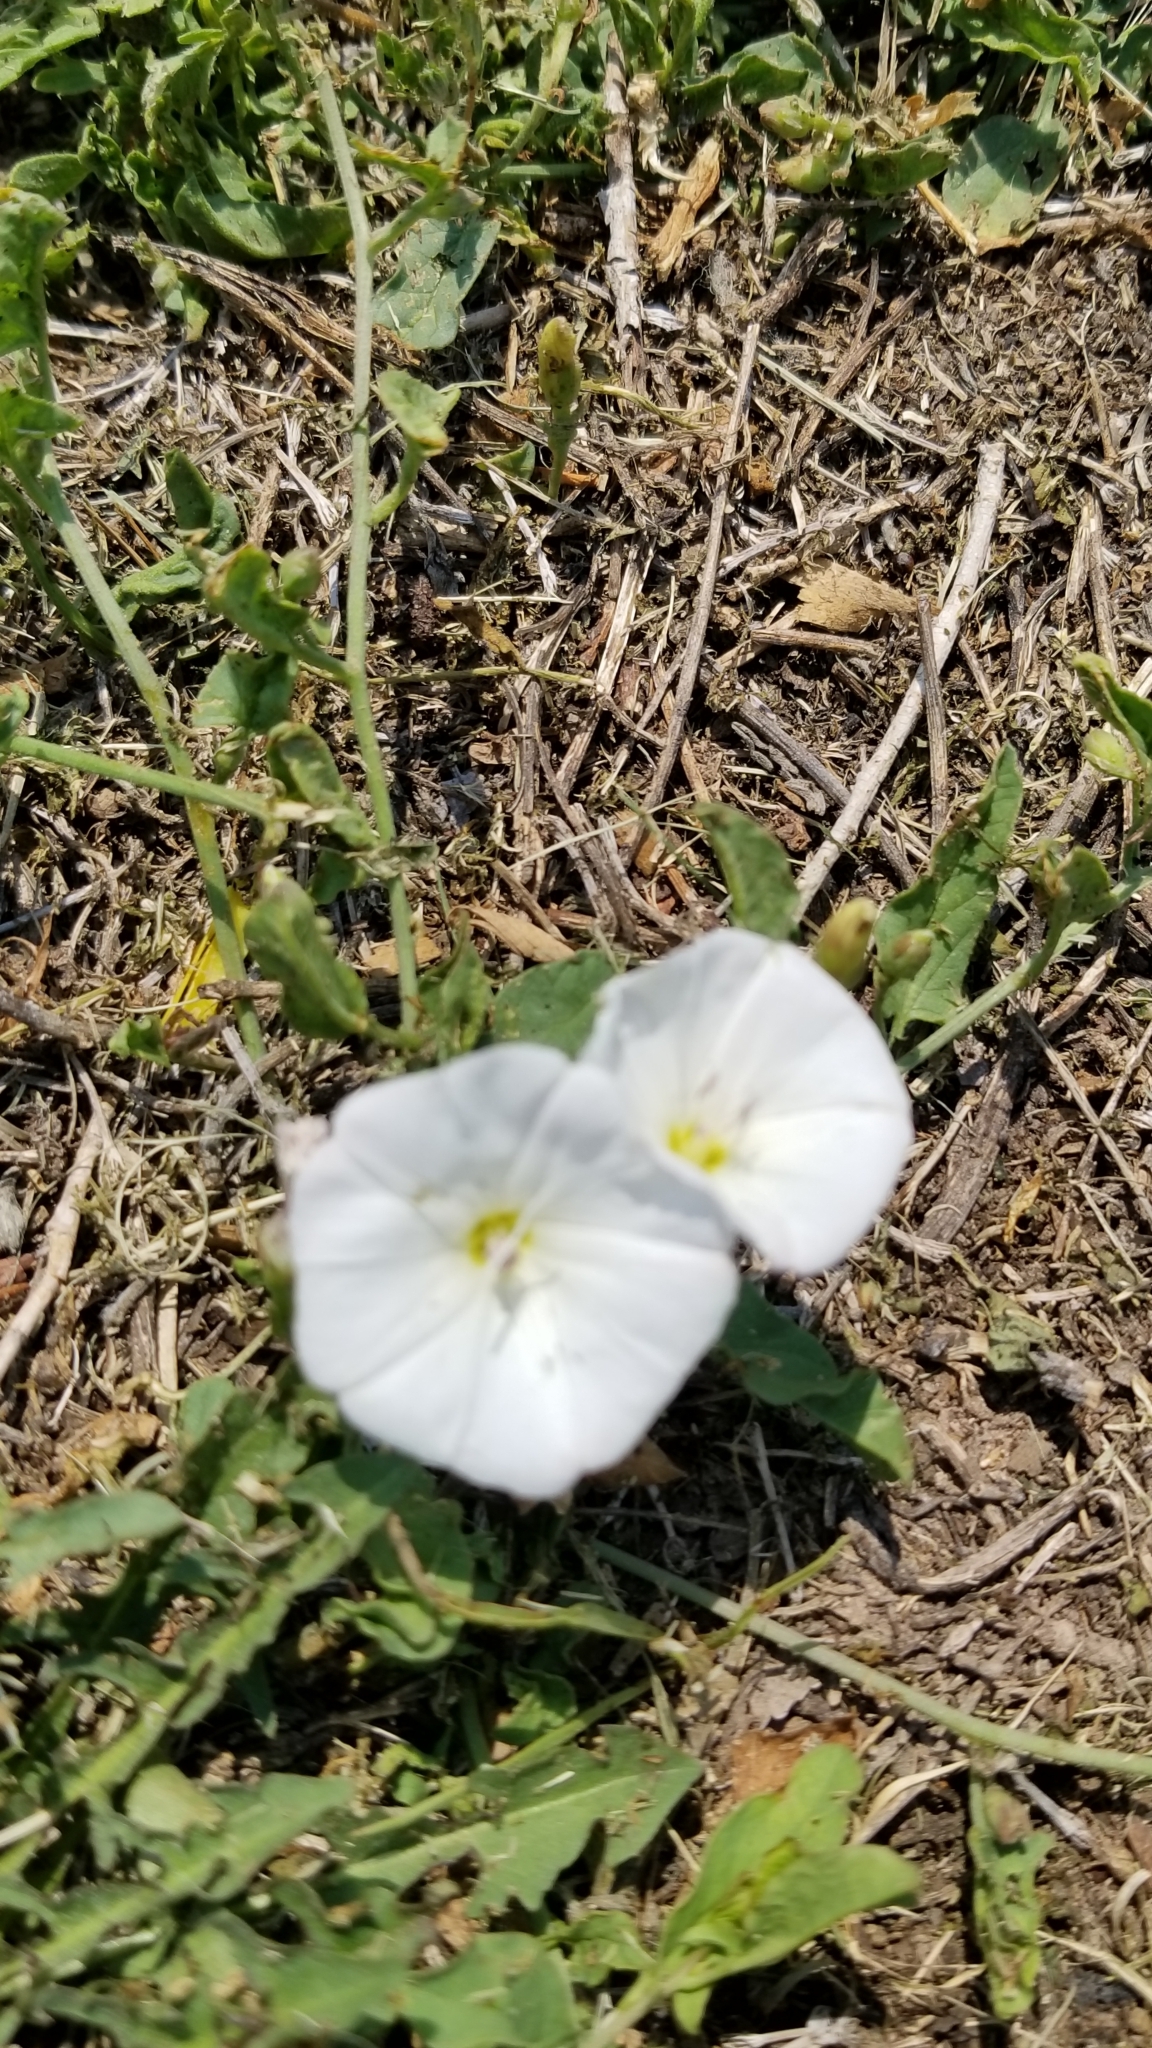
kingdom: Plantae
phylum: Tracheophyta
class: Magnoliopsida
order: Solanales
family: Convolvulaceae
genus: Convolvulus
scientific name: Convolvulus arvensis
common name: Field bindweed
